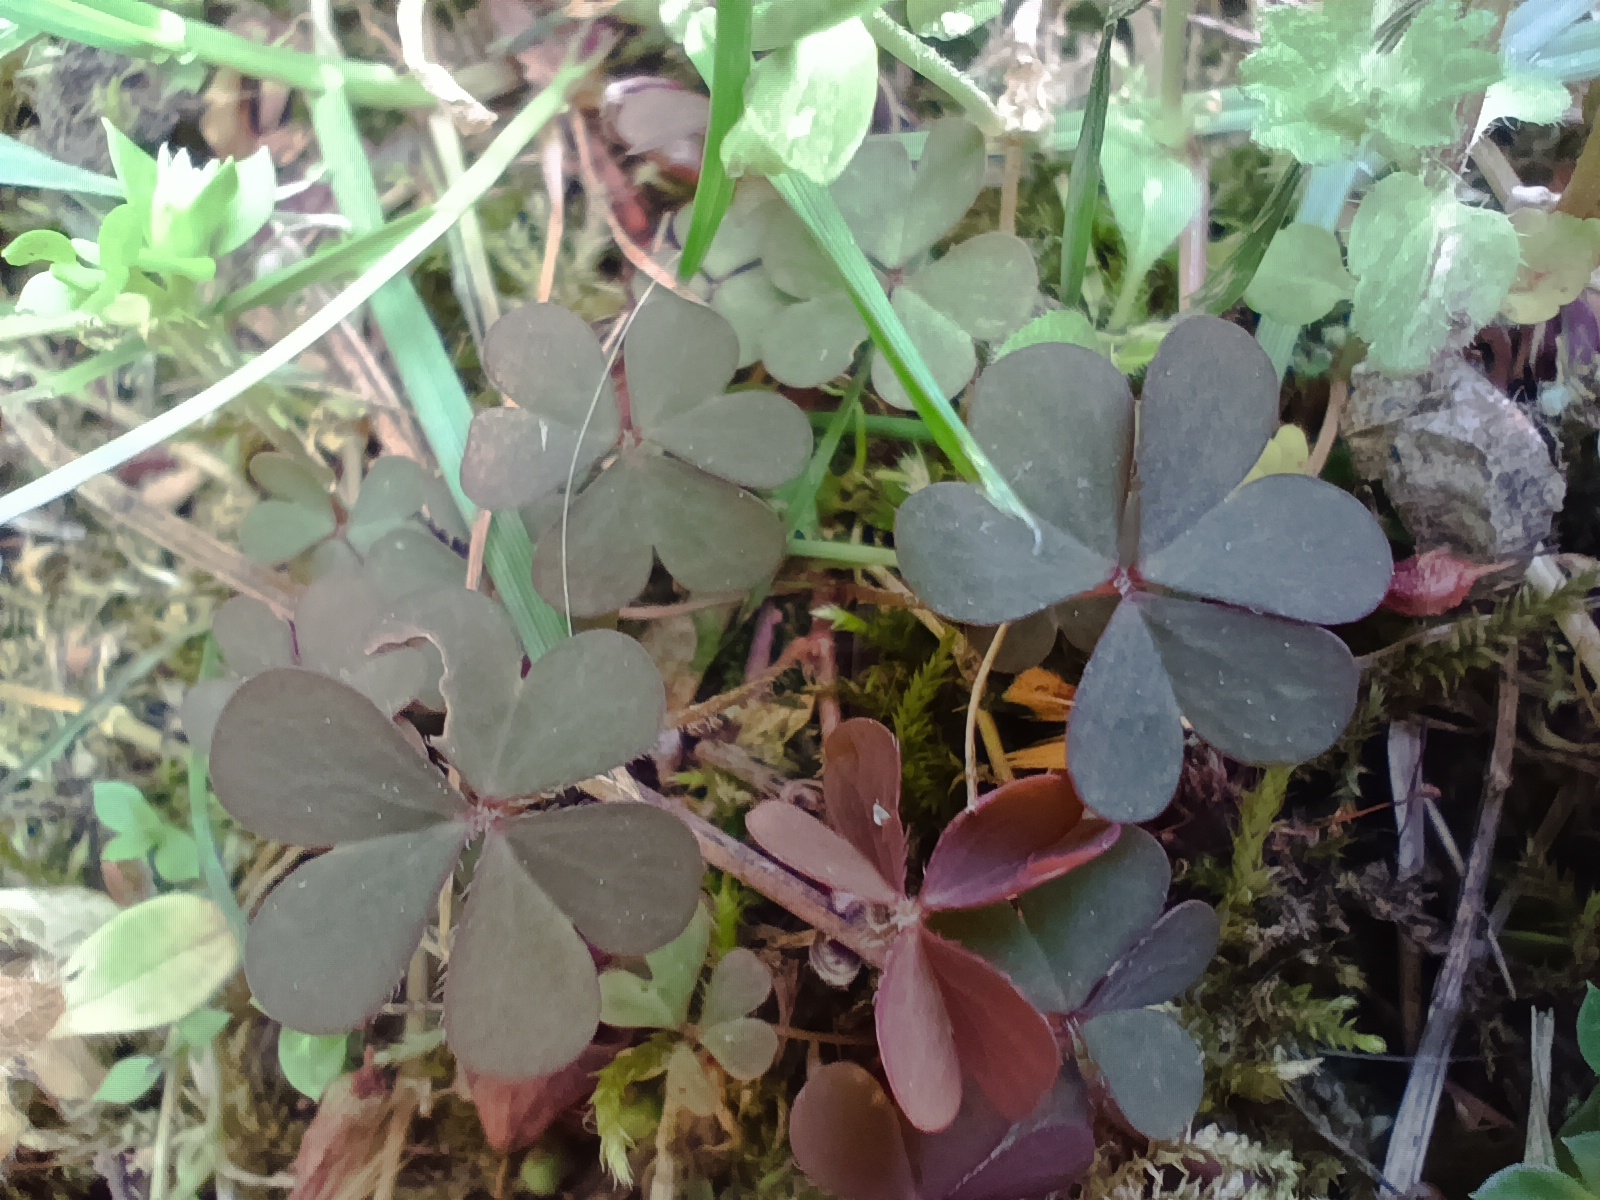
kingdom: Plantae
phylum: Tracheophyta
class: Magnoliopsida
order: Oxalidales
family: Oxalidaceae
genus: Oxalis
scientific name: Oxalis corniculata
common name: Procumbent yellow-sorrel
